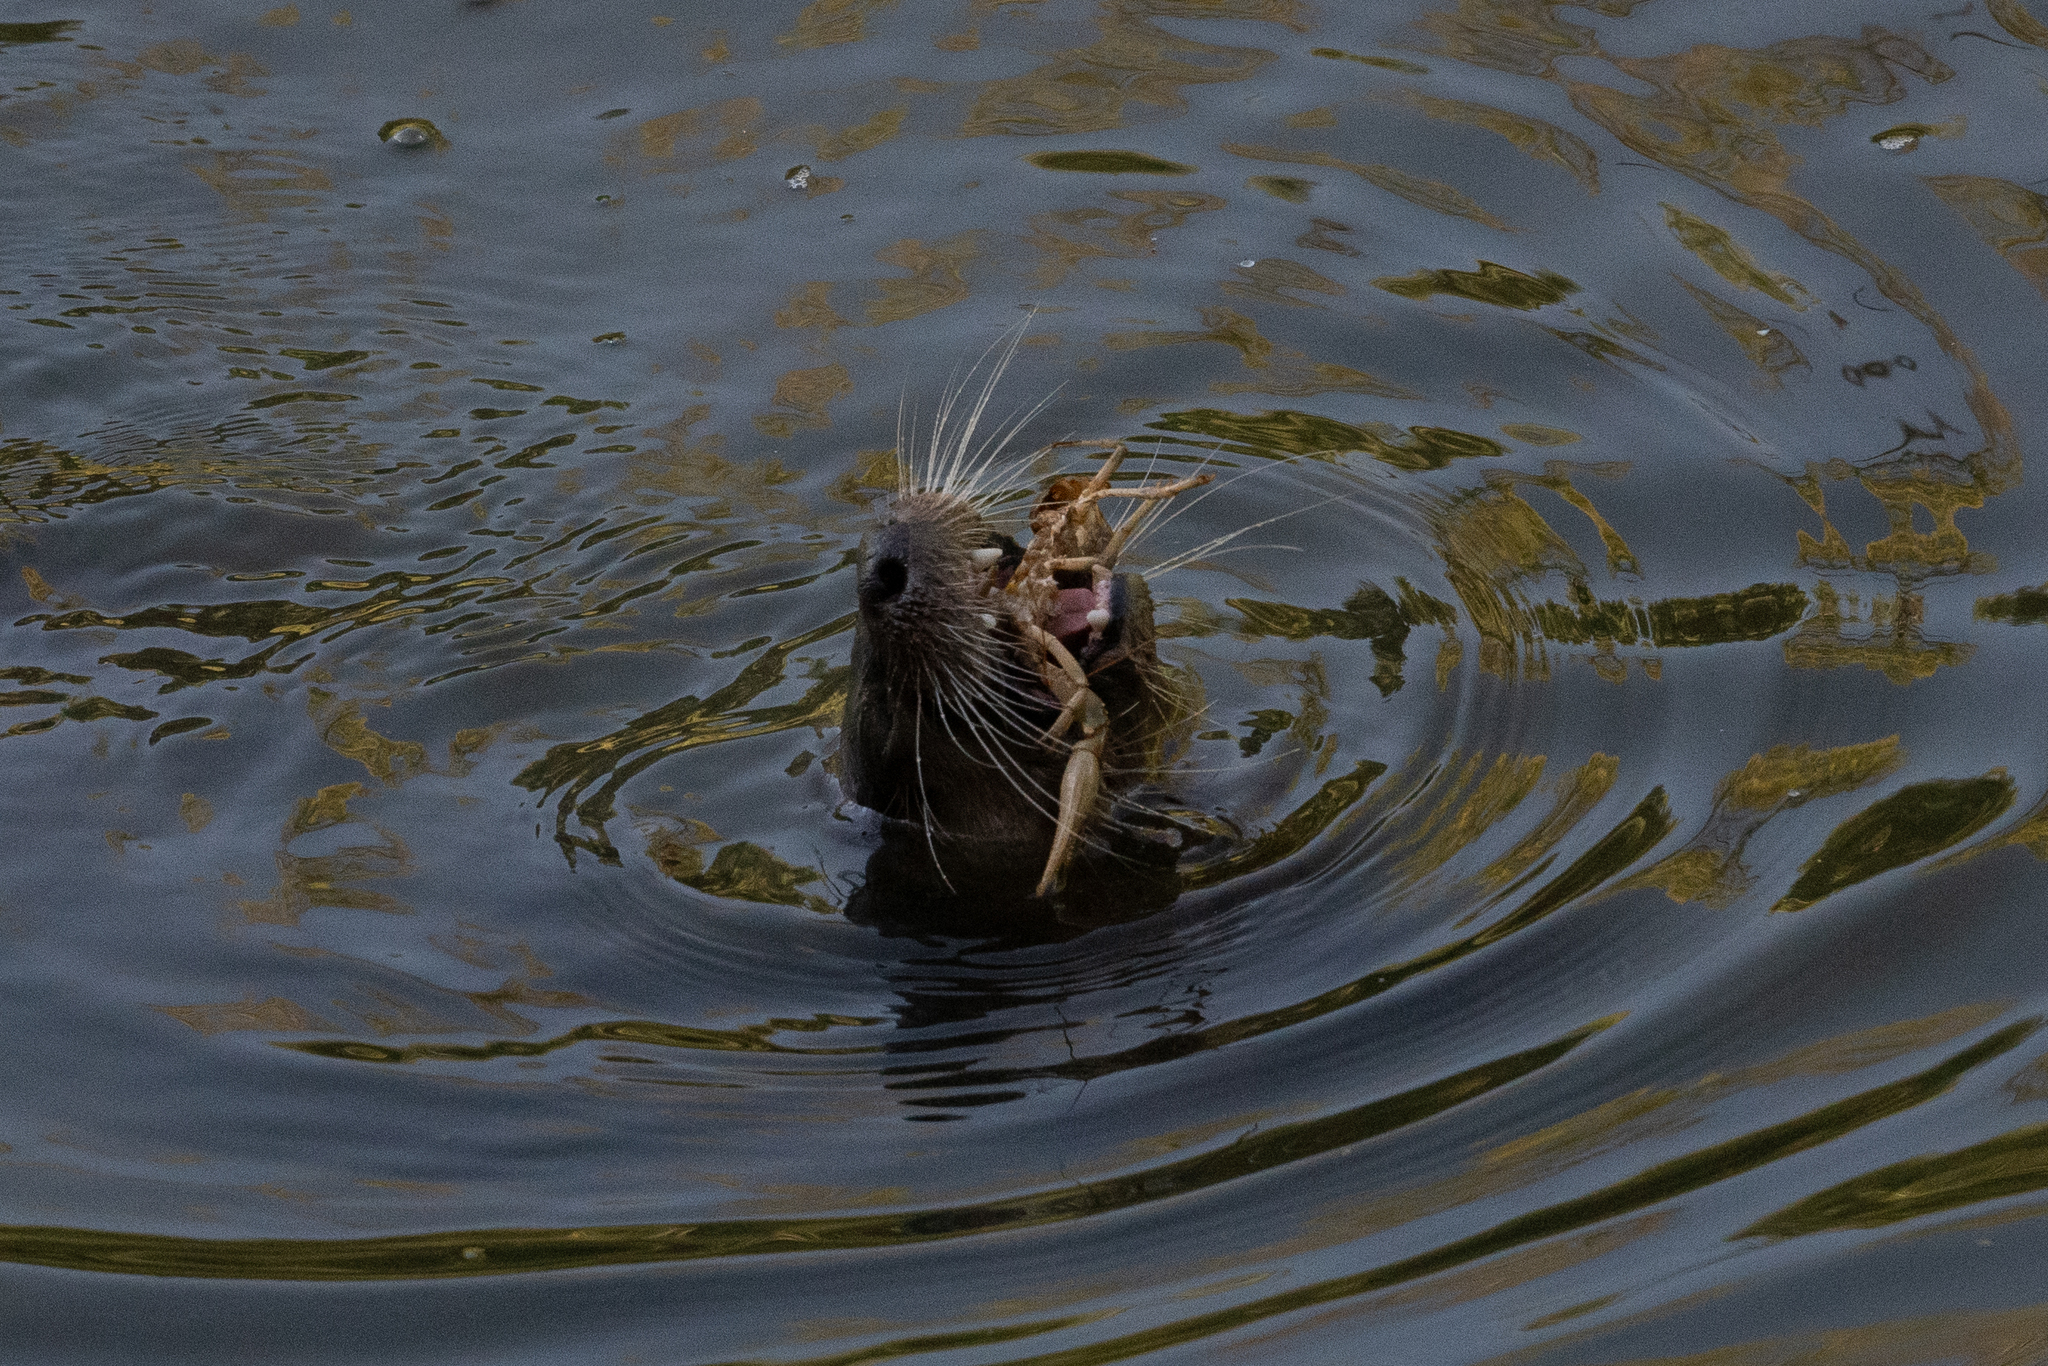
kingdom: Animalia
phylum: Chordata
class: Mammalia
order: Carnivora
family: Mustelidae
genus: Lontra
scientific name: Lontra canadensis
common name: North american river otter
